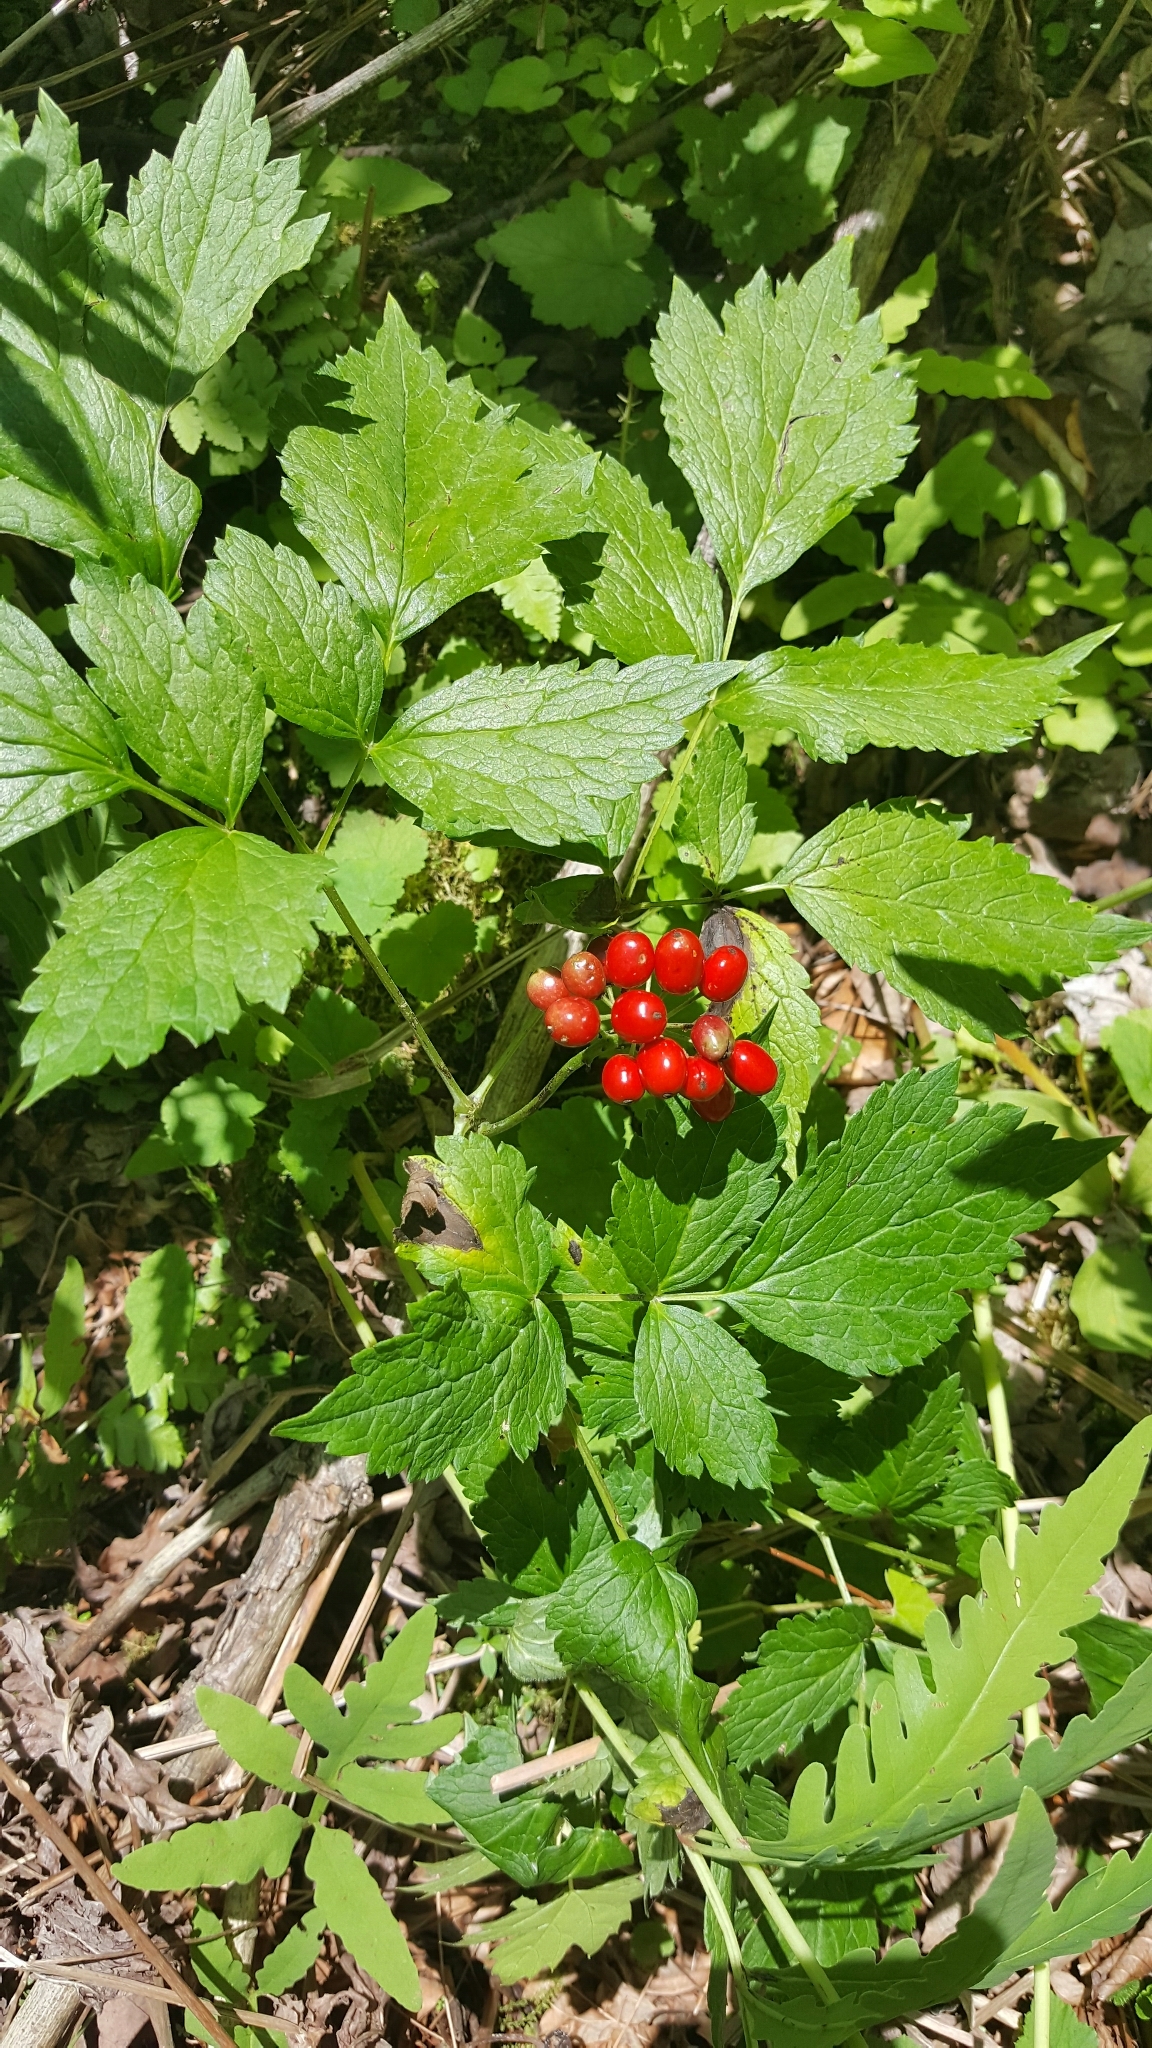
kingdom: Plantae
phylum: Tracheophyta
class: Magnoliopsida
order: Ranunculales
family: Ranunculaceae
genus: Actaea
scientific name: Actaea rubra
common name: Red baneberry
